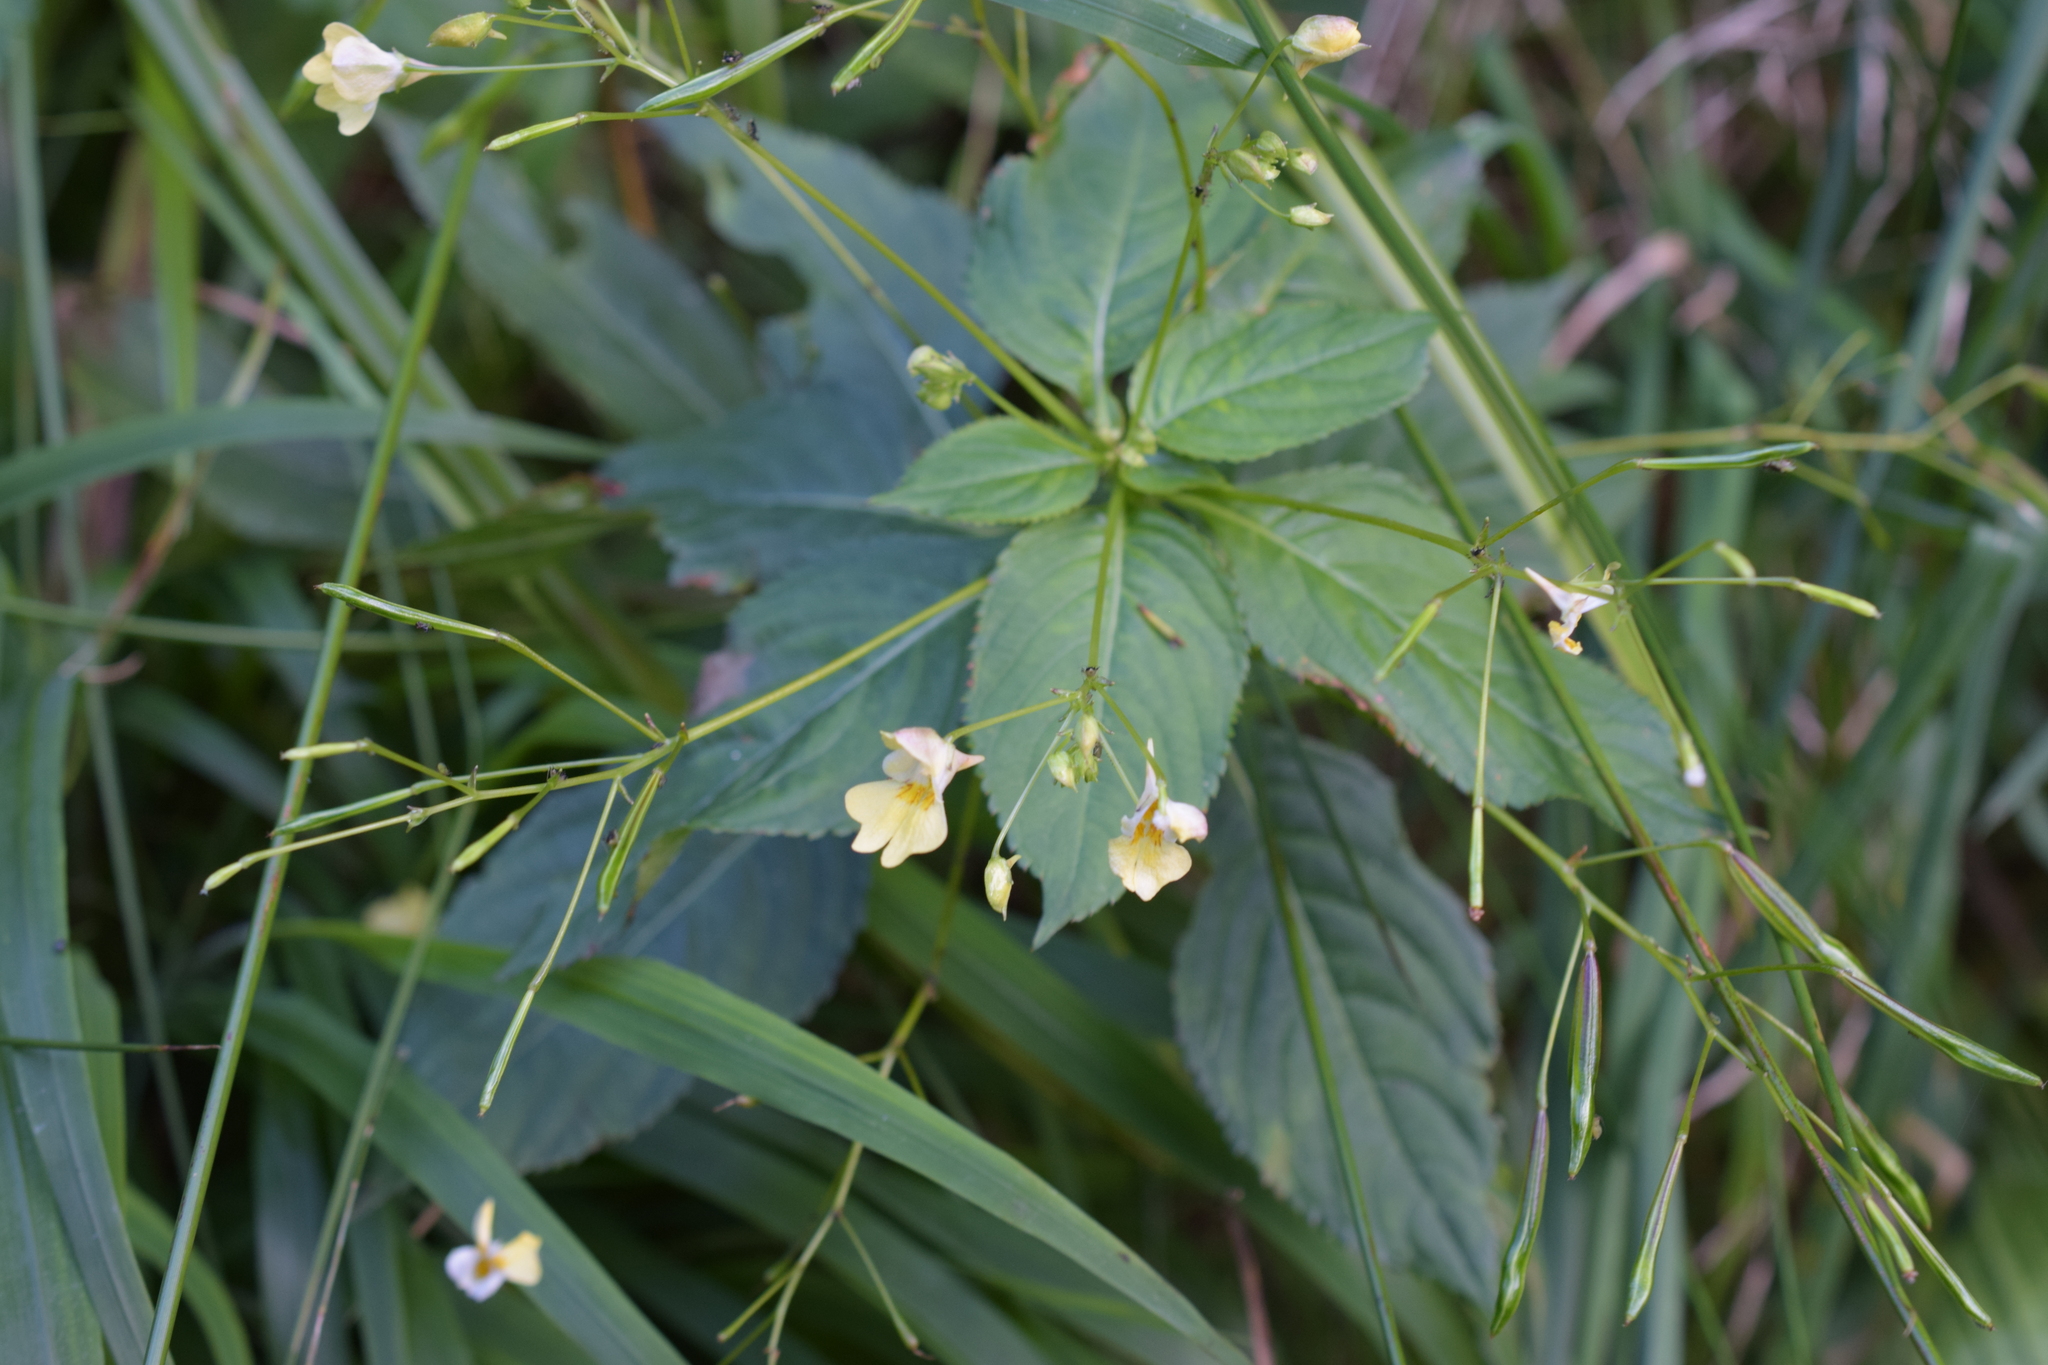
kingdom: Plantae
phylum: Tracheophyta
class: Magnoliopsida
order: Ericales
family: Balsaminaceae
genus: Impatiens
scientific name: Impatiens parviflora
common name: Small balsam
